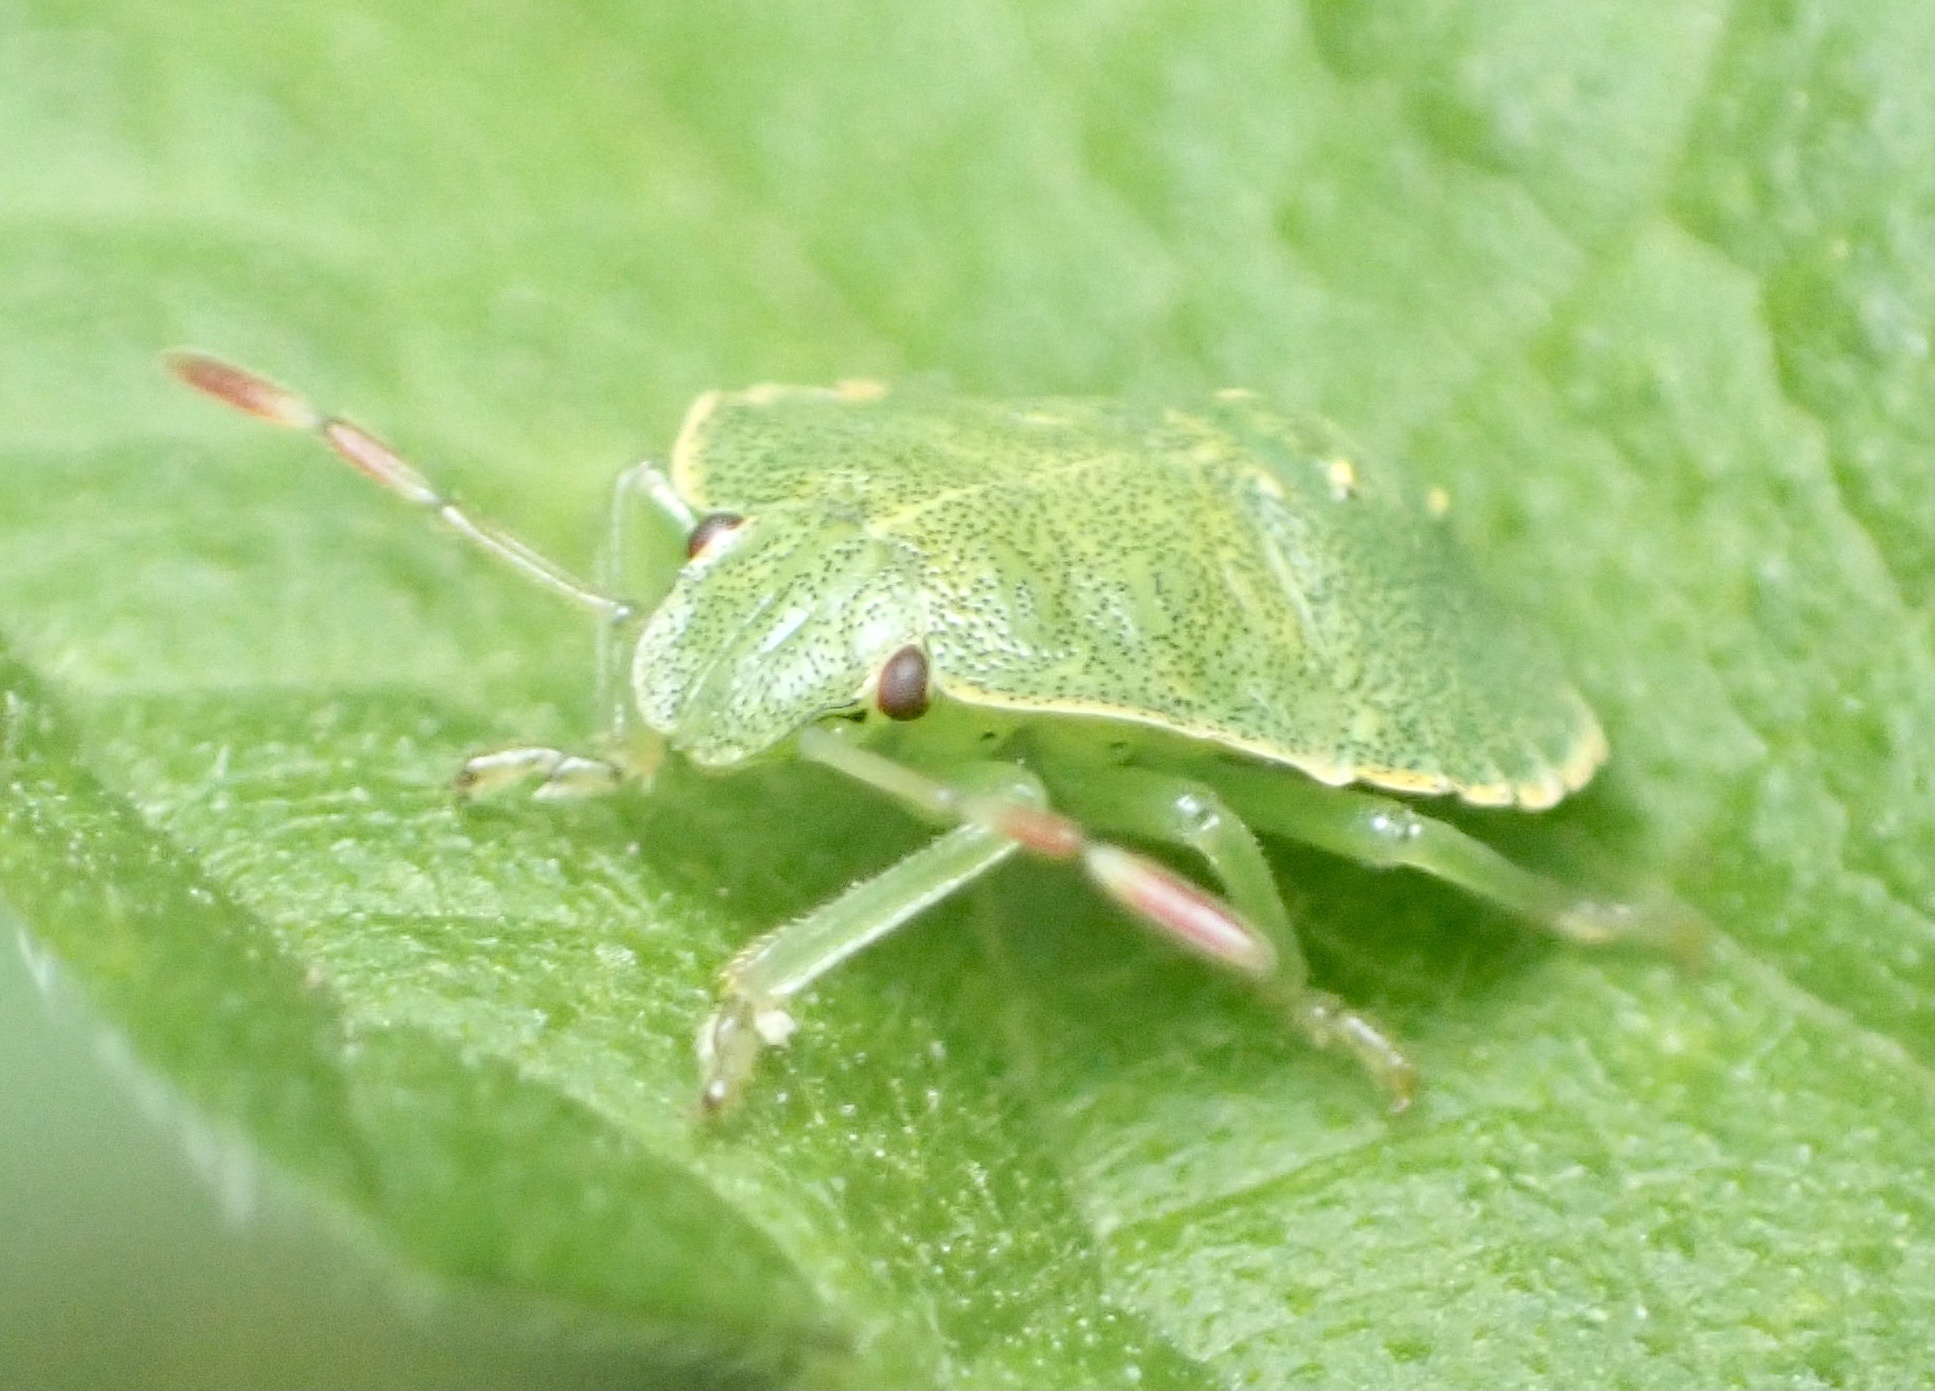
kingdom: Animalia
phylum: Arthropoda
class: Insecta
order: Hemiptera
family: Pentatomidae
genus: Palomena
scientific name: Palomena prasina
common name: Green shieldbug
